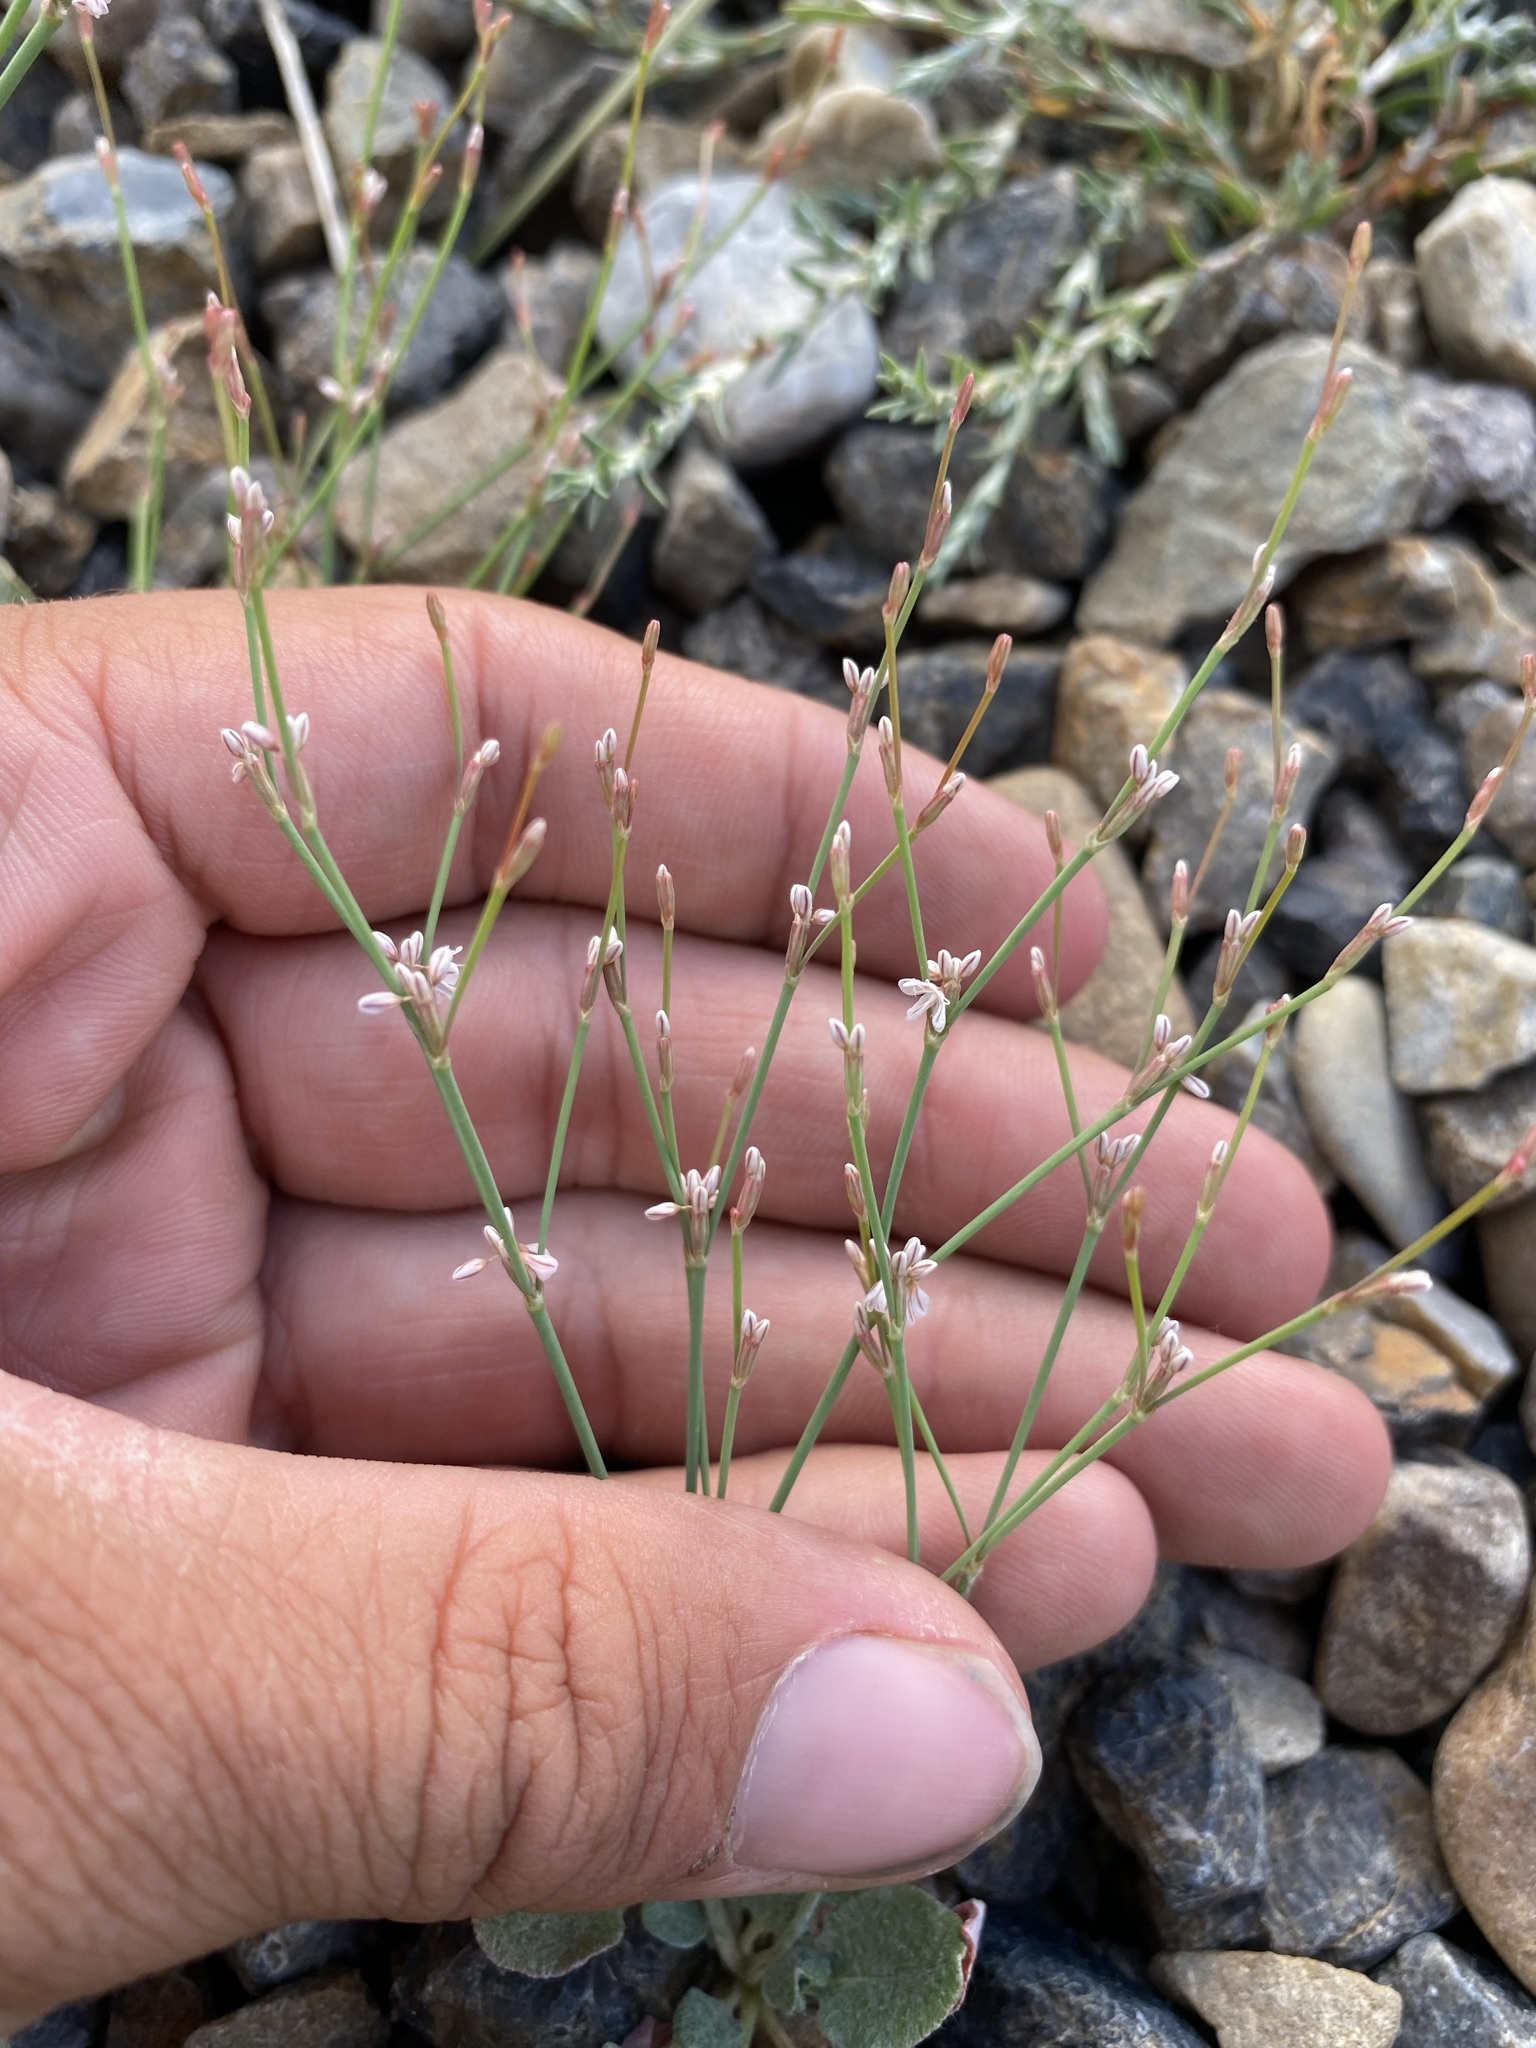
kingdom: Plantae
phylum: Tracheophyta
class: Magnoliopsida
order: Caryophyllales
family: Polygonaceae
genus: Eriogonum
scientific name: Eriogonum vimineum
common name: Wicker buckwheat
